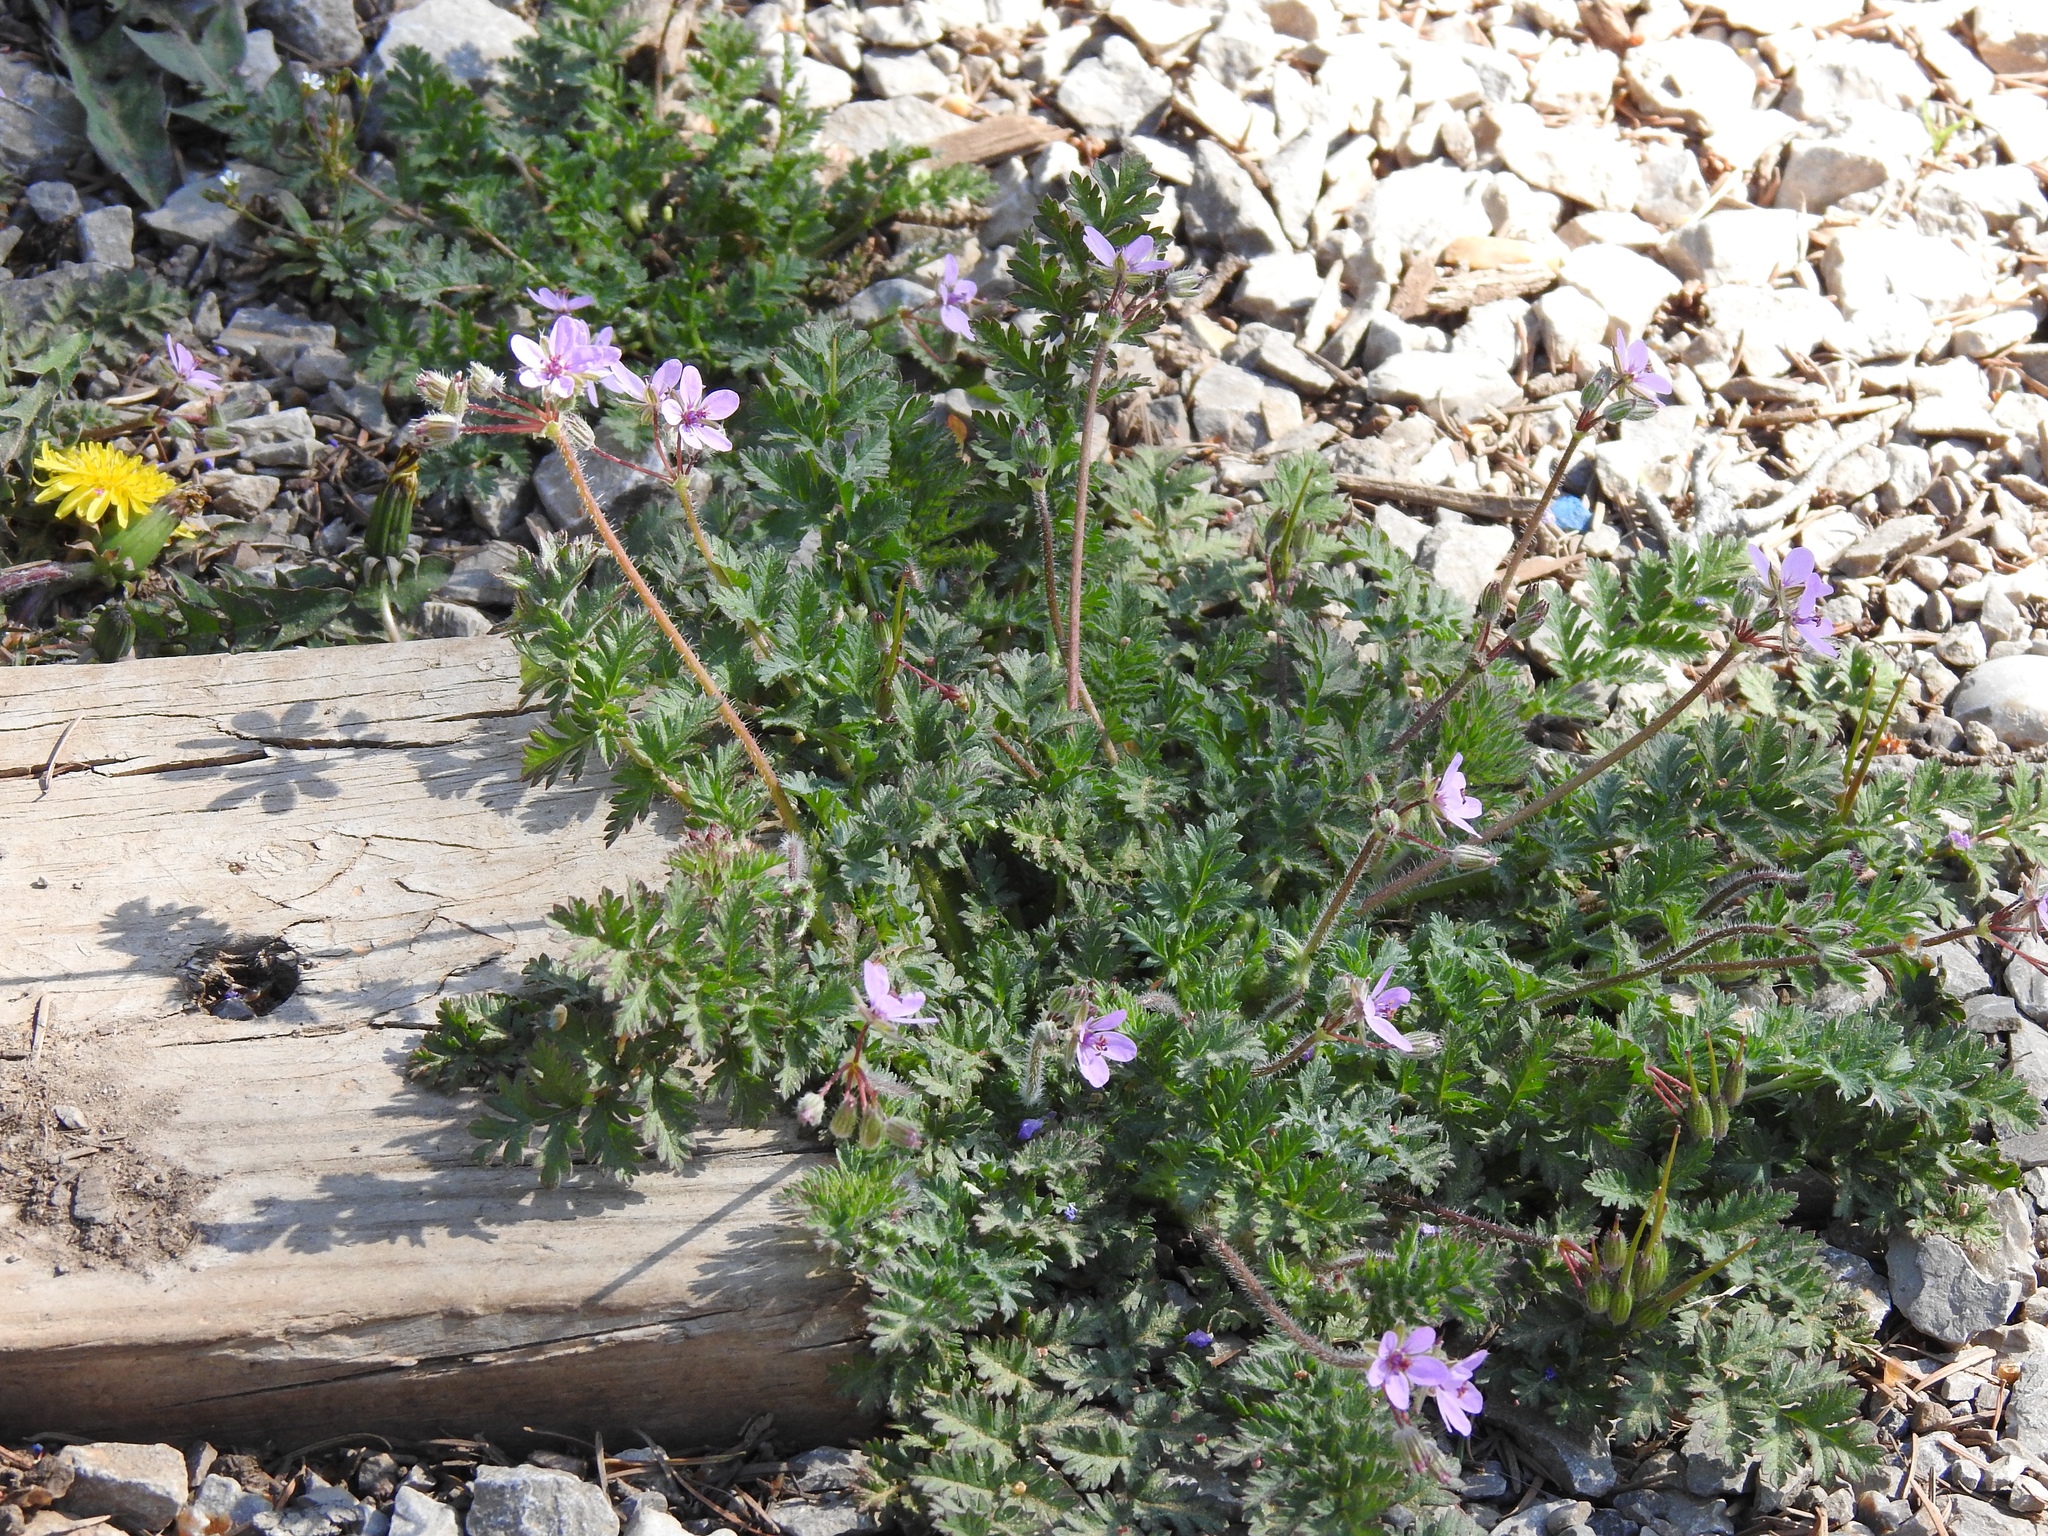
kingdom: Plantae
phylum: Tracheophyta
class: Magnoliopsida
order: Geraniales
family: Geraniaceae
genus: Erodium
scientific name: Erodium cicutarium
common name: Common stork's-bill
